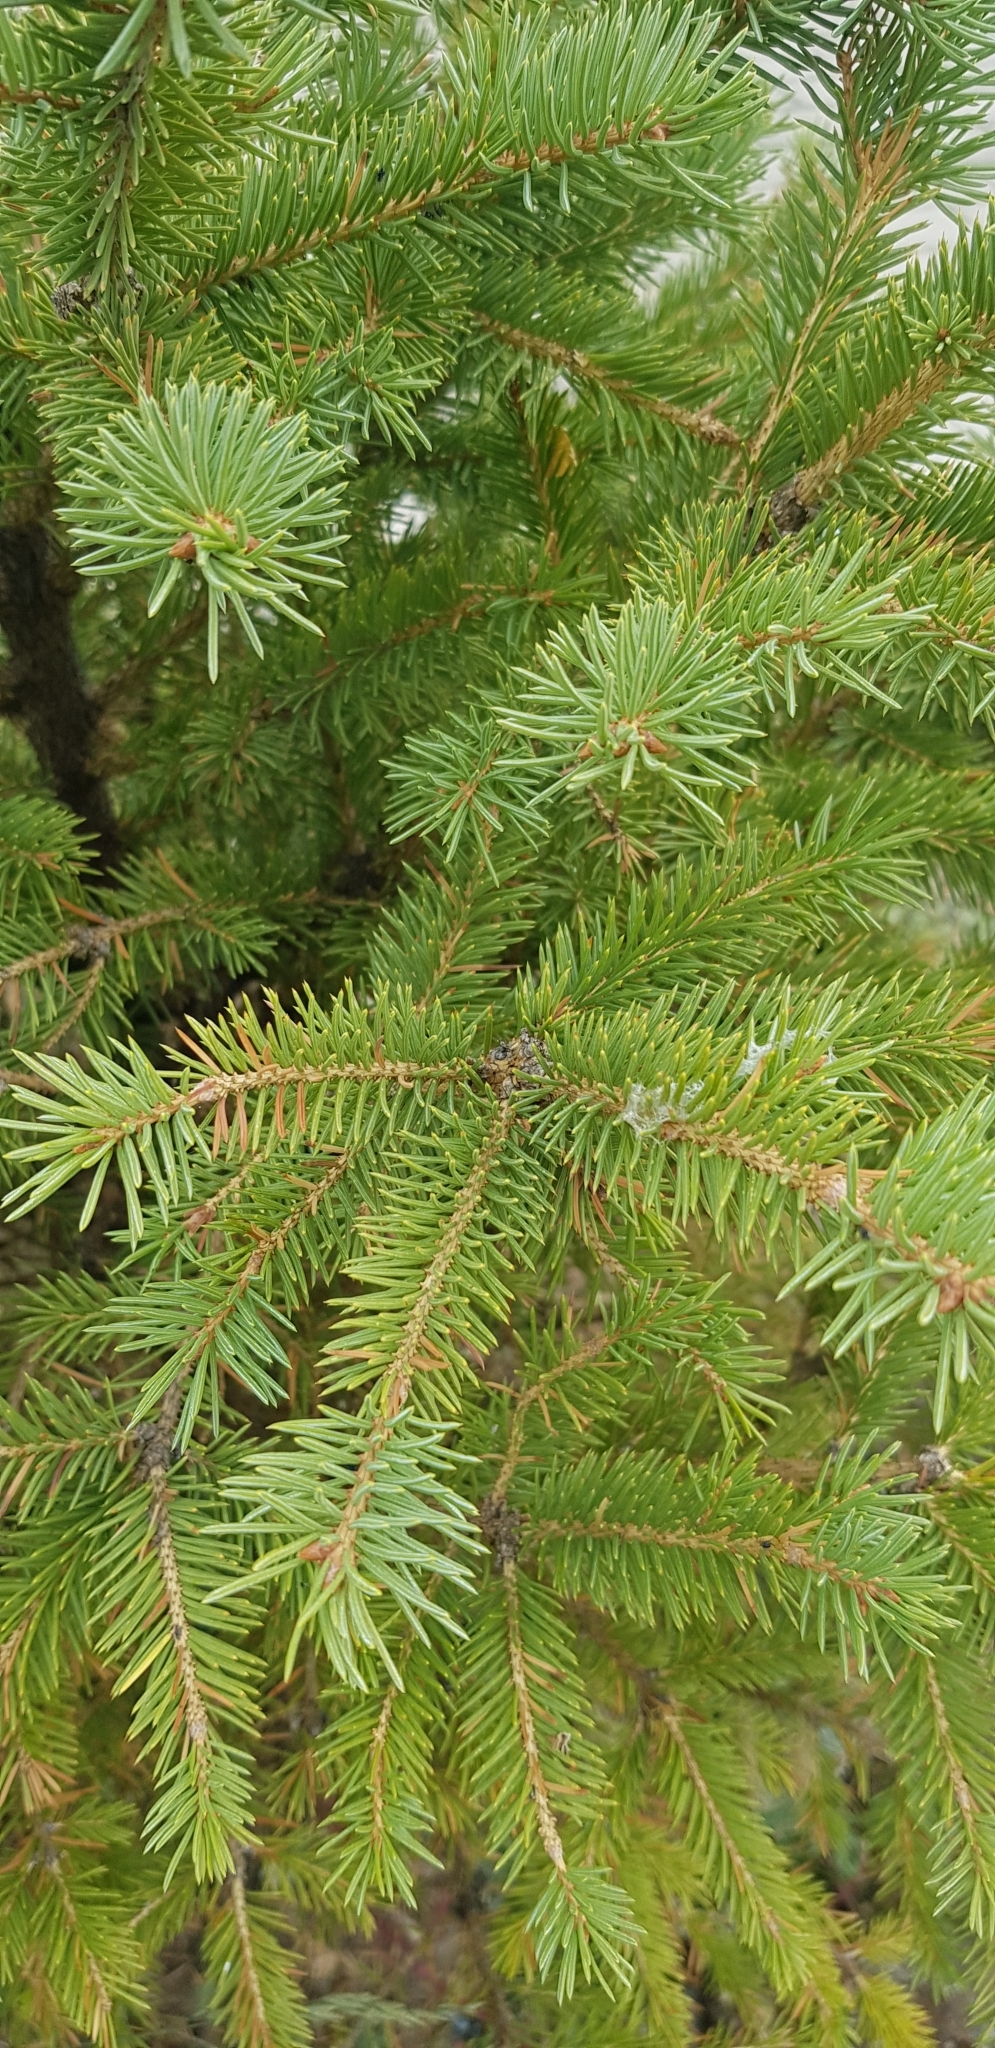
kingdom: Plantae
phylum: Tracheophyta
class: Pinopsida
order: Pinales
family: Pinaceae
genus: Picea
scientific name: Picea obovata
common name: Siberian spruce
